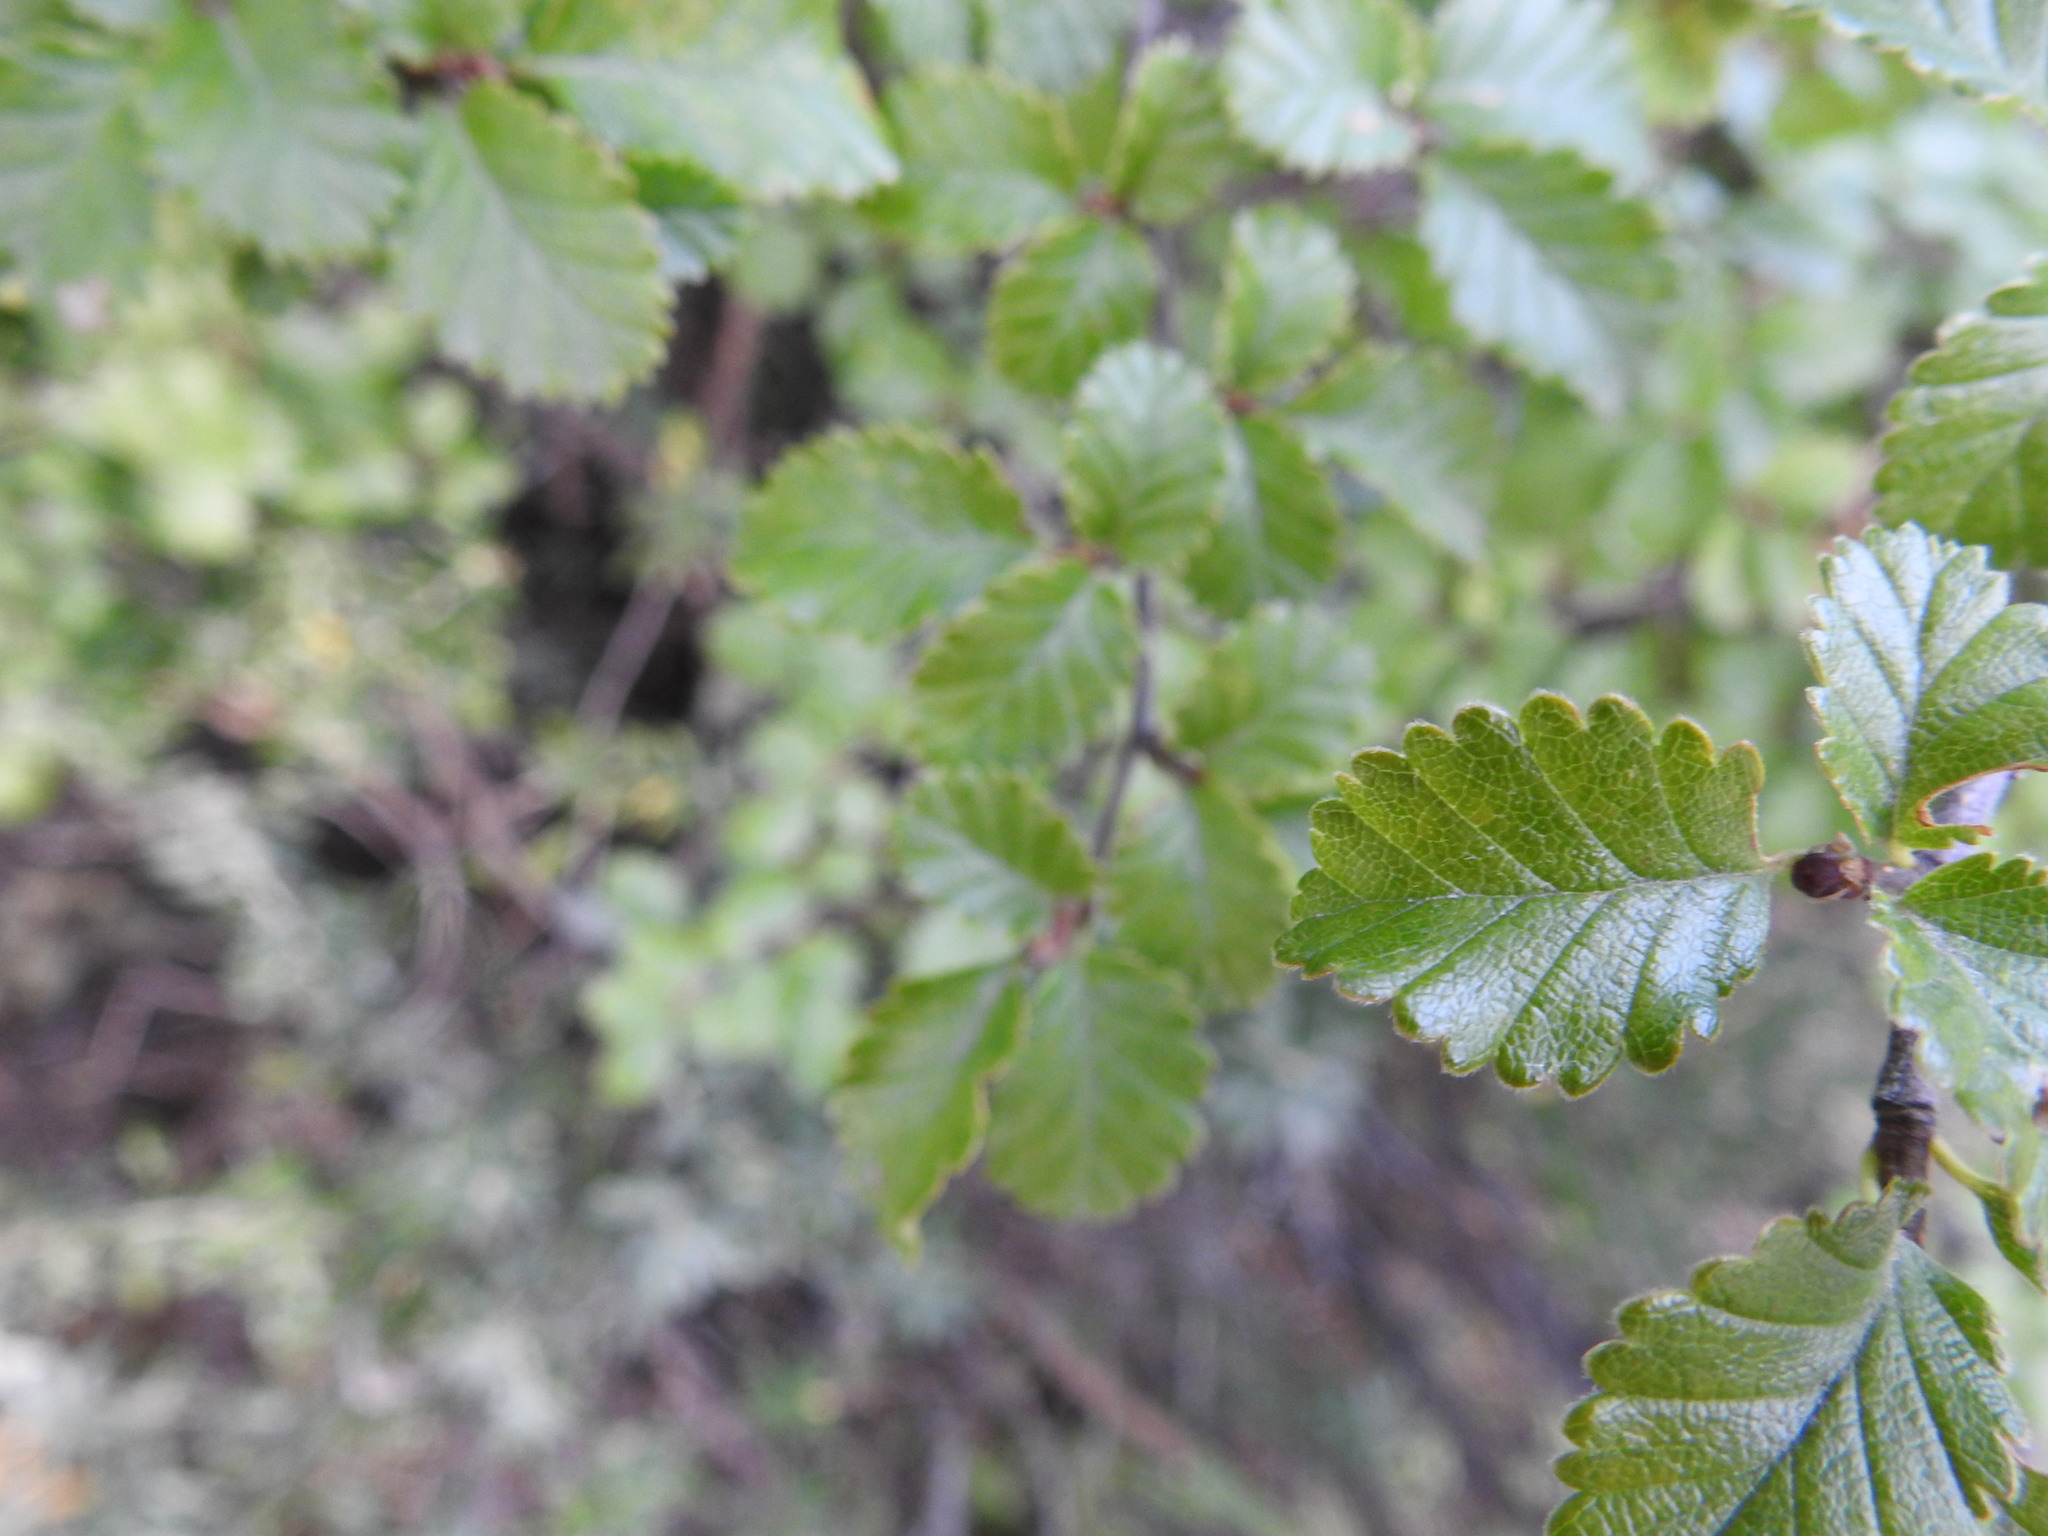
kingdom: Plantae
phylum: Tracheophyta
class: Magnoliopsida
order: Fagales
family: Nothofagaceae
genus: Nothofagus
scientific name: Nothofagus pumilio
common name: Lenga beech
